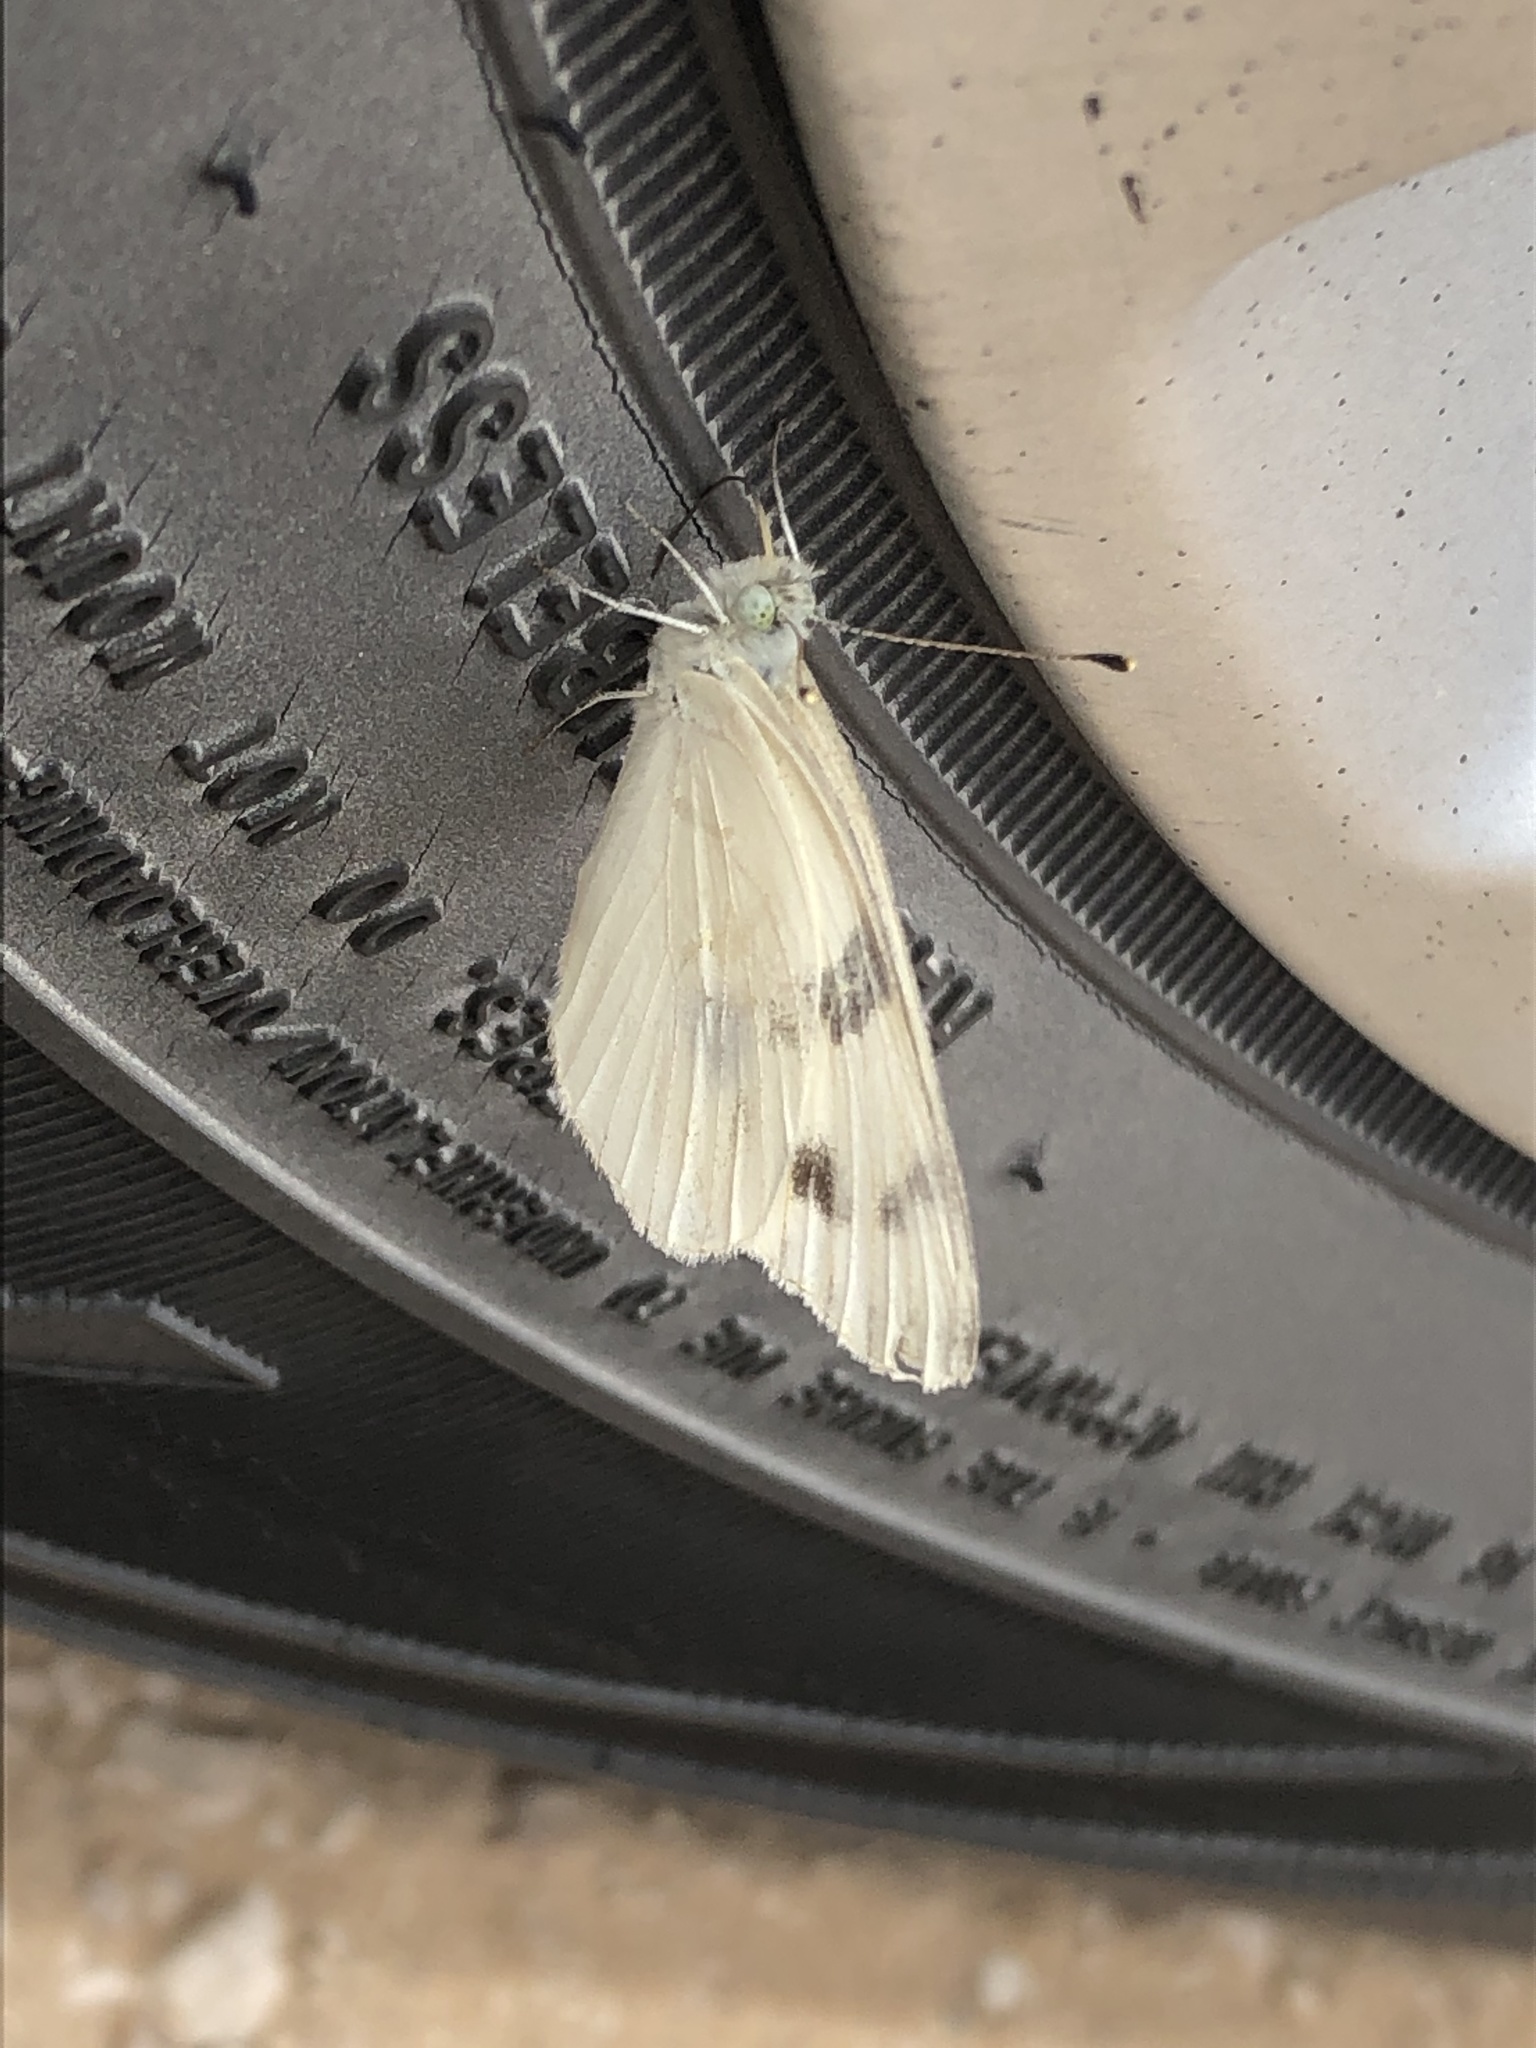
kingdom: Animalia
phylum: Arthropoda
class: Insecta
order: Lepidoptera
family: Pieridae
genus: Pontia
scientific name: Pontia protodice
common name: Checkered white
